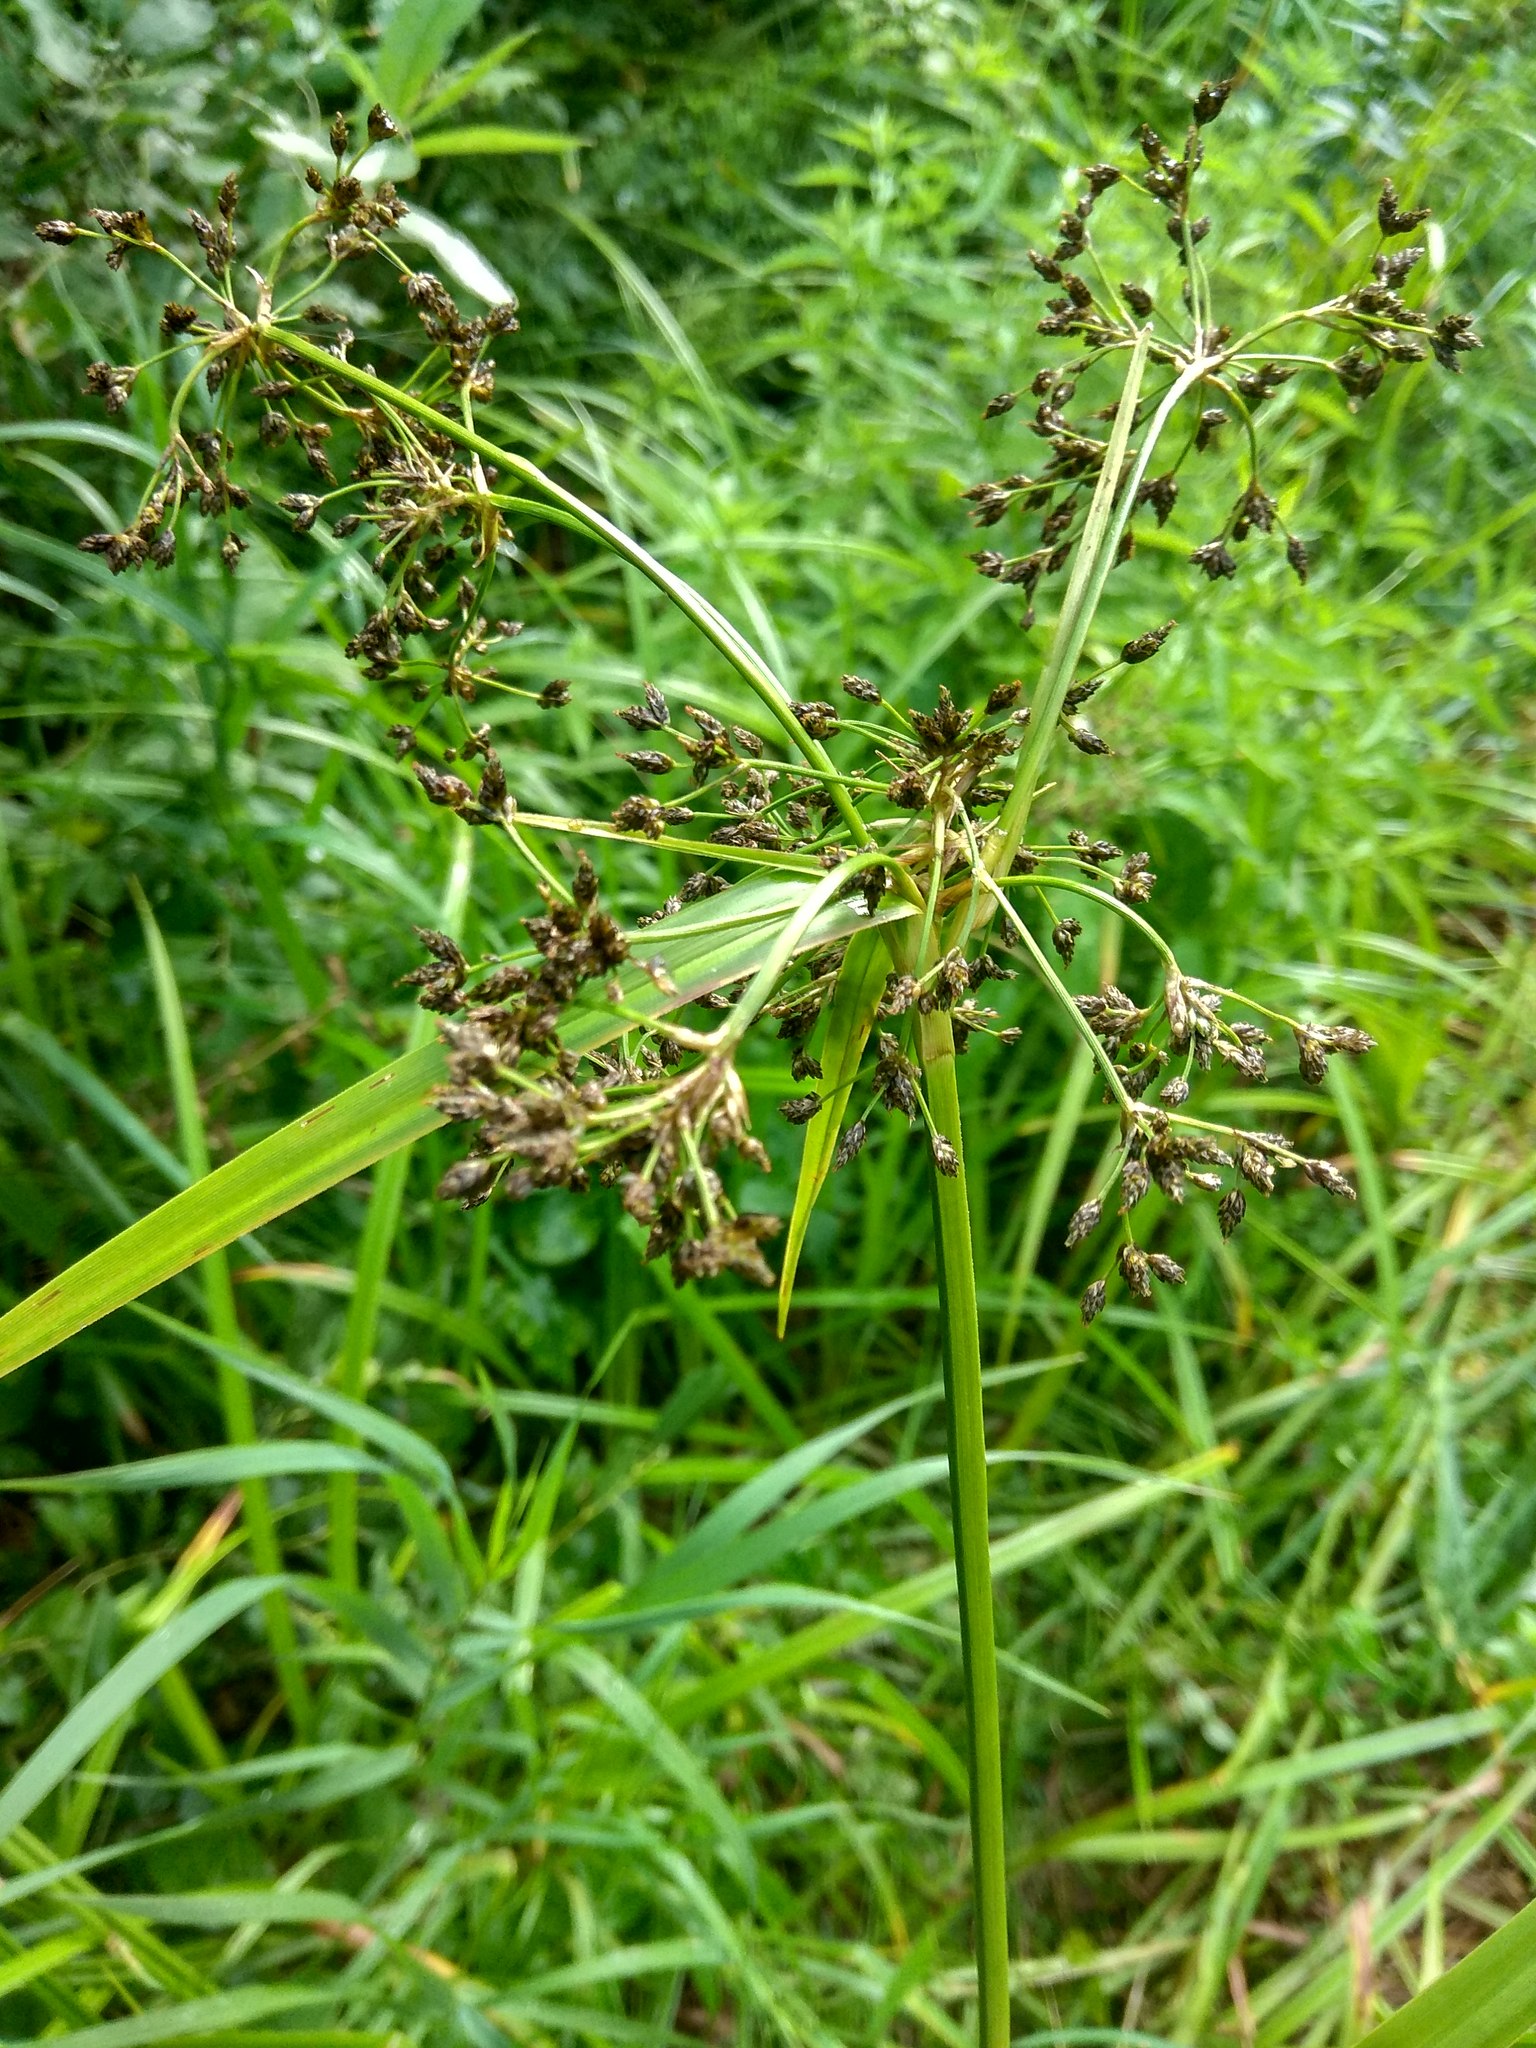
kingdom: Plantae
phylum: Tracheophyta
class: Liliopsida
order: Poales
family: Cyperaceae
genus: Scirpus
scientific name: Scirpus sylvaticus
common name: Wood club-rush
